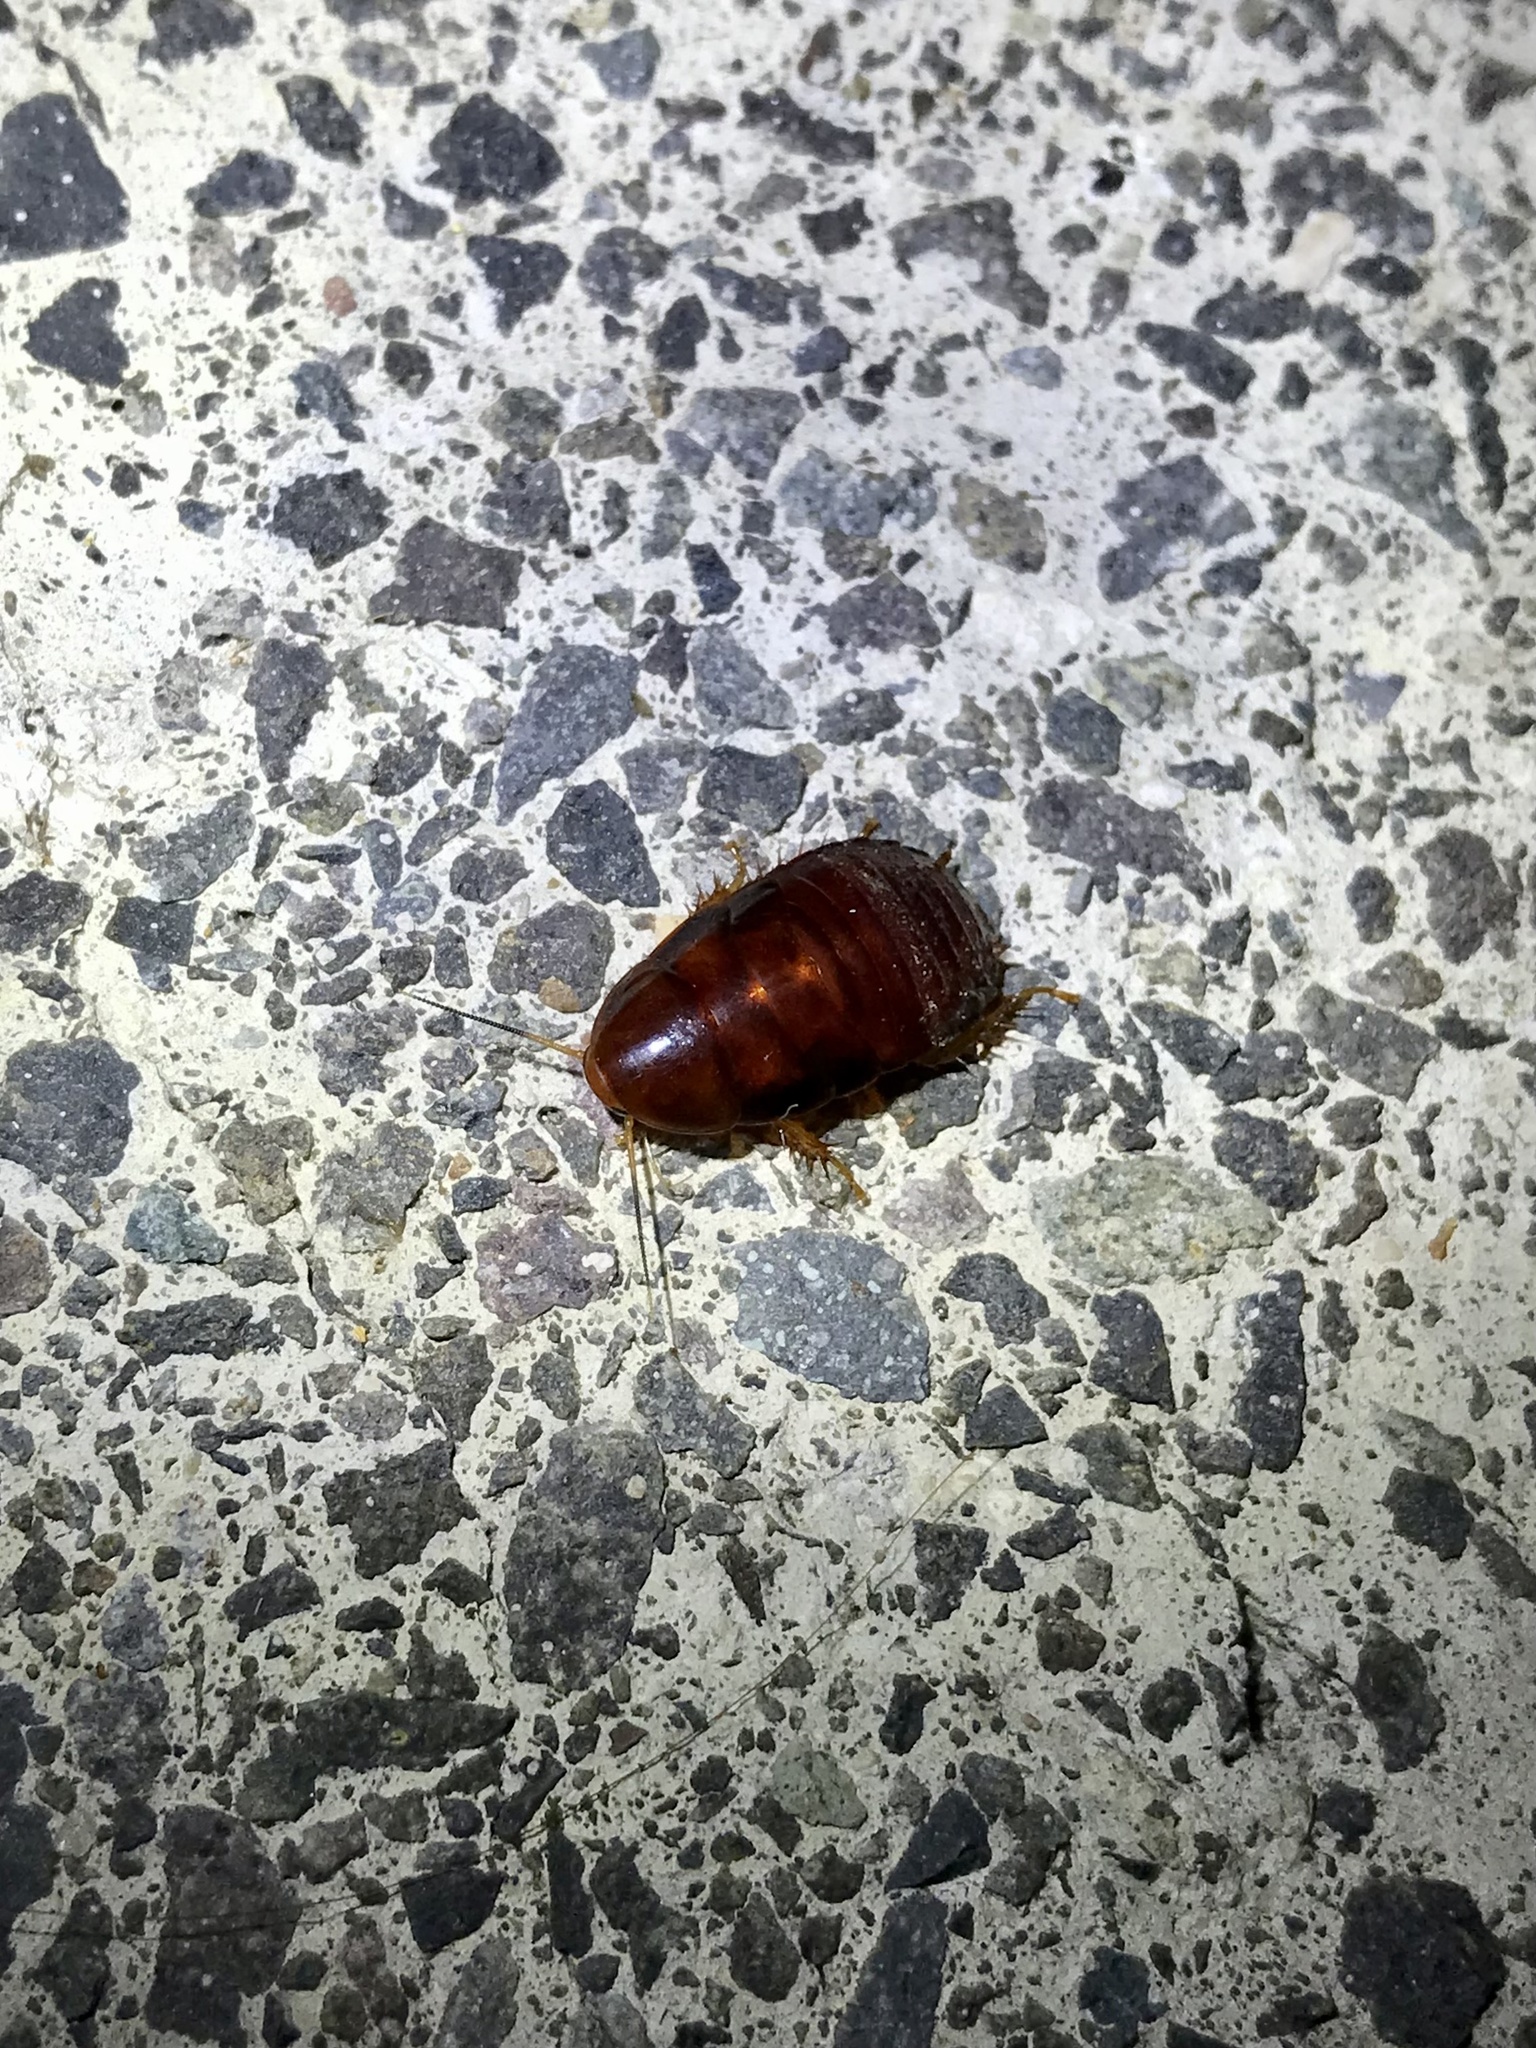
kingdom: Animalia
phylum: Arthropoda
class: Insecta
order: Blattodea
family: Blaberidae
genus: Pycnoscelus
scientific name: Pycnoscelus surinamensis
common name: Surinam cockroach
